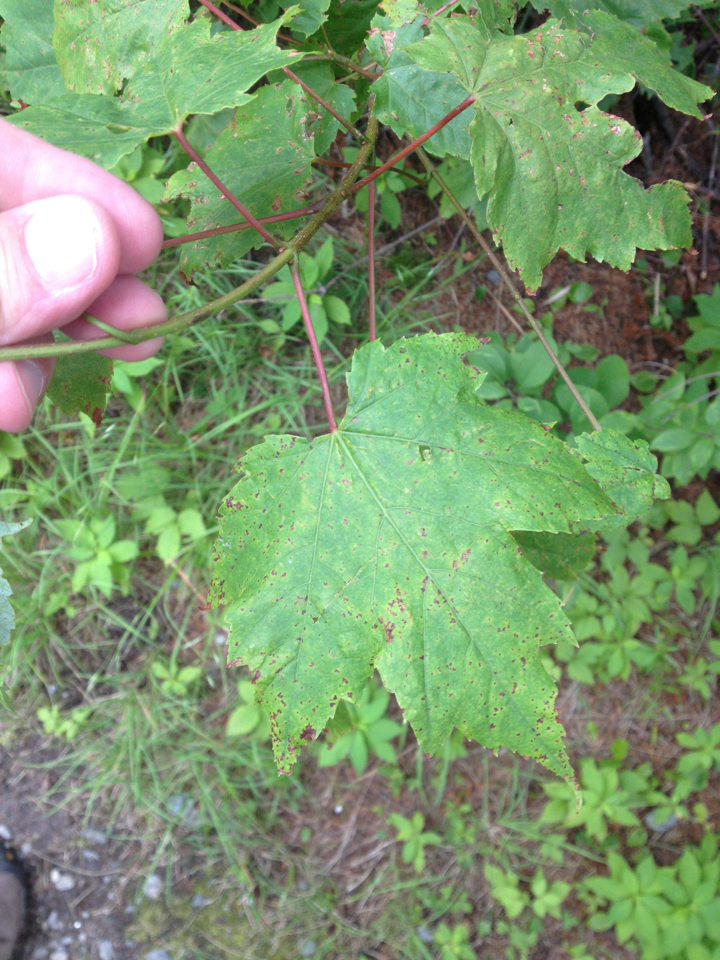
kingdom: Plantae
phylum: Tracheophyta
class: Magnoliopsida
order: Sapindales
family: Sapindaceae
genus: Acer
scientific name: Acer rubrum
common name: Red maple
